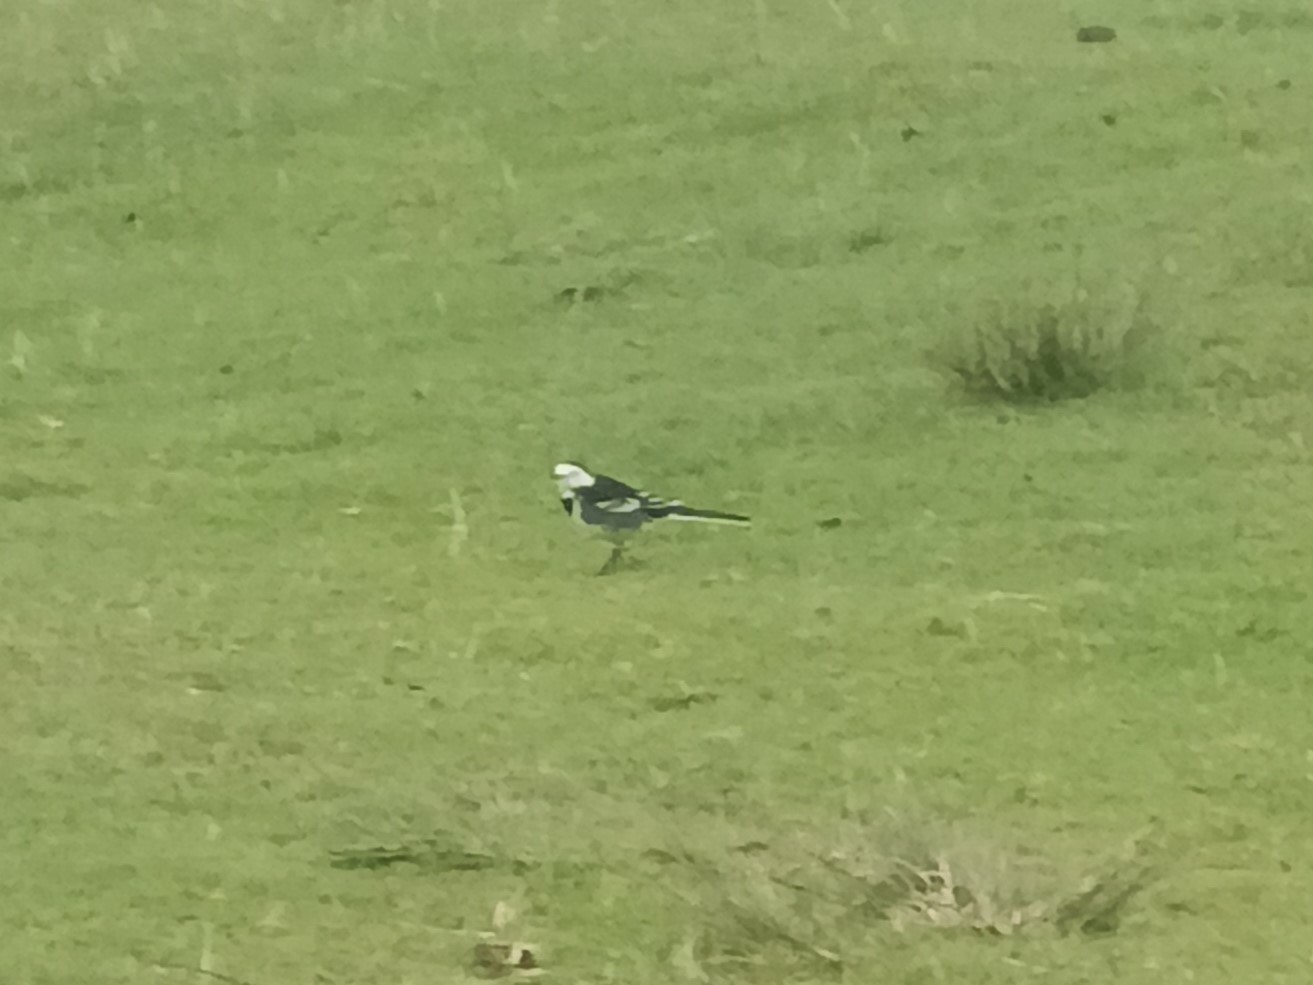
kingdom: Animalia
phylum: Chordata
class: Aves
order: Passeriformes
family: Motacillidae
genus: Motacilla
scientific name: Motacilla alba
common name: White wagtail
